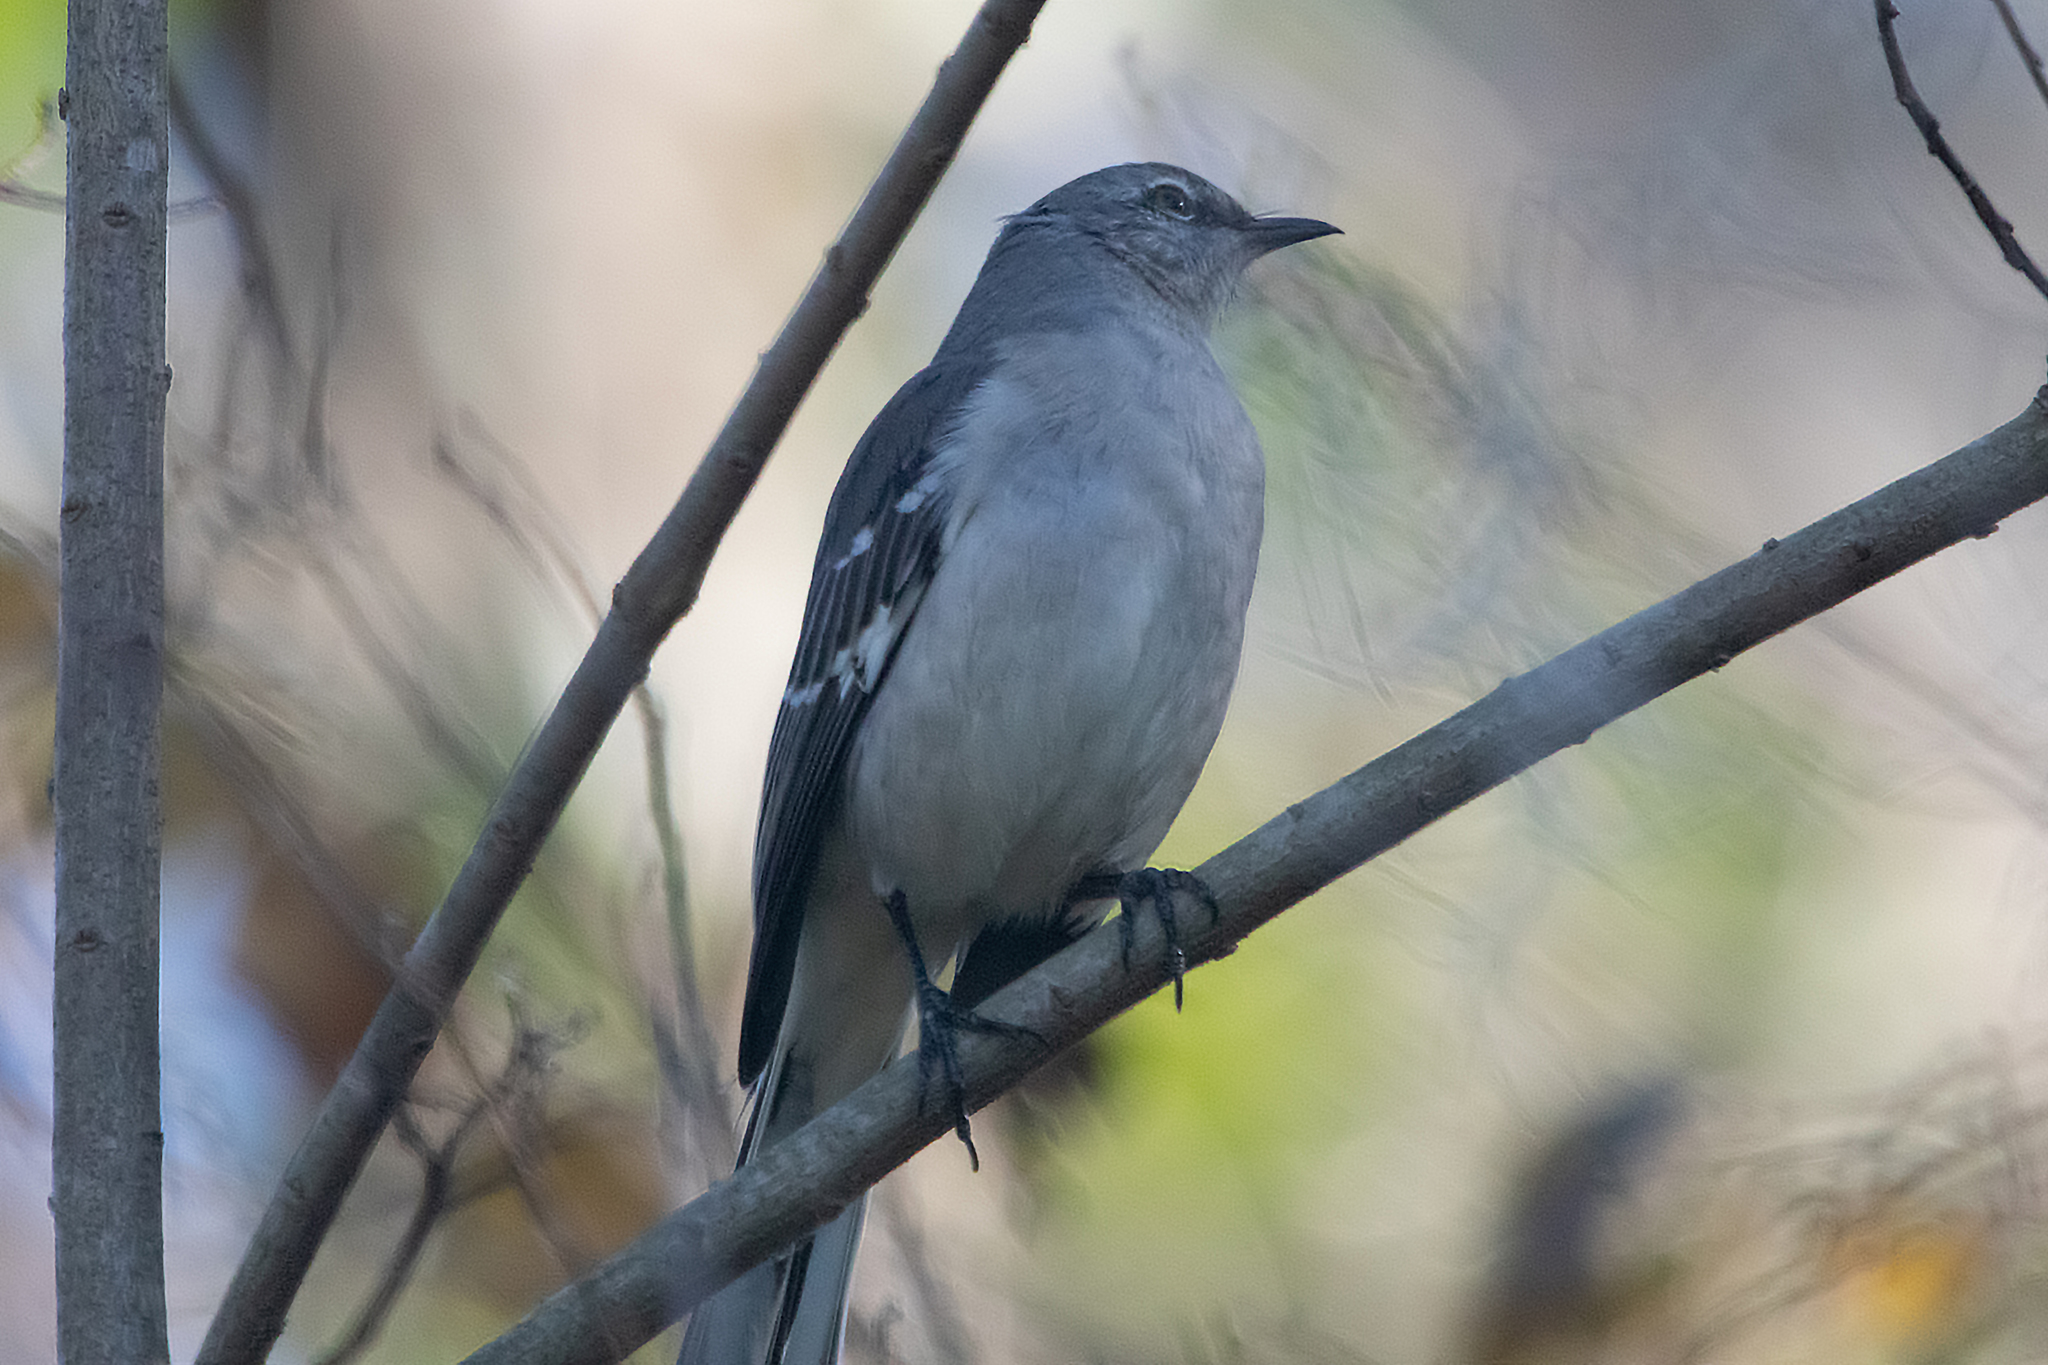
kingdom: Animalia
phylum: Chordata
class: Aves
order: Passeriformes
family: Mimidae
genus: Mimus
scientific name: Mimus polyglottos
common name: Northern mockingbird
